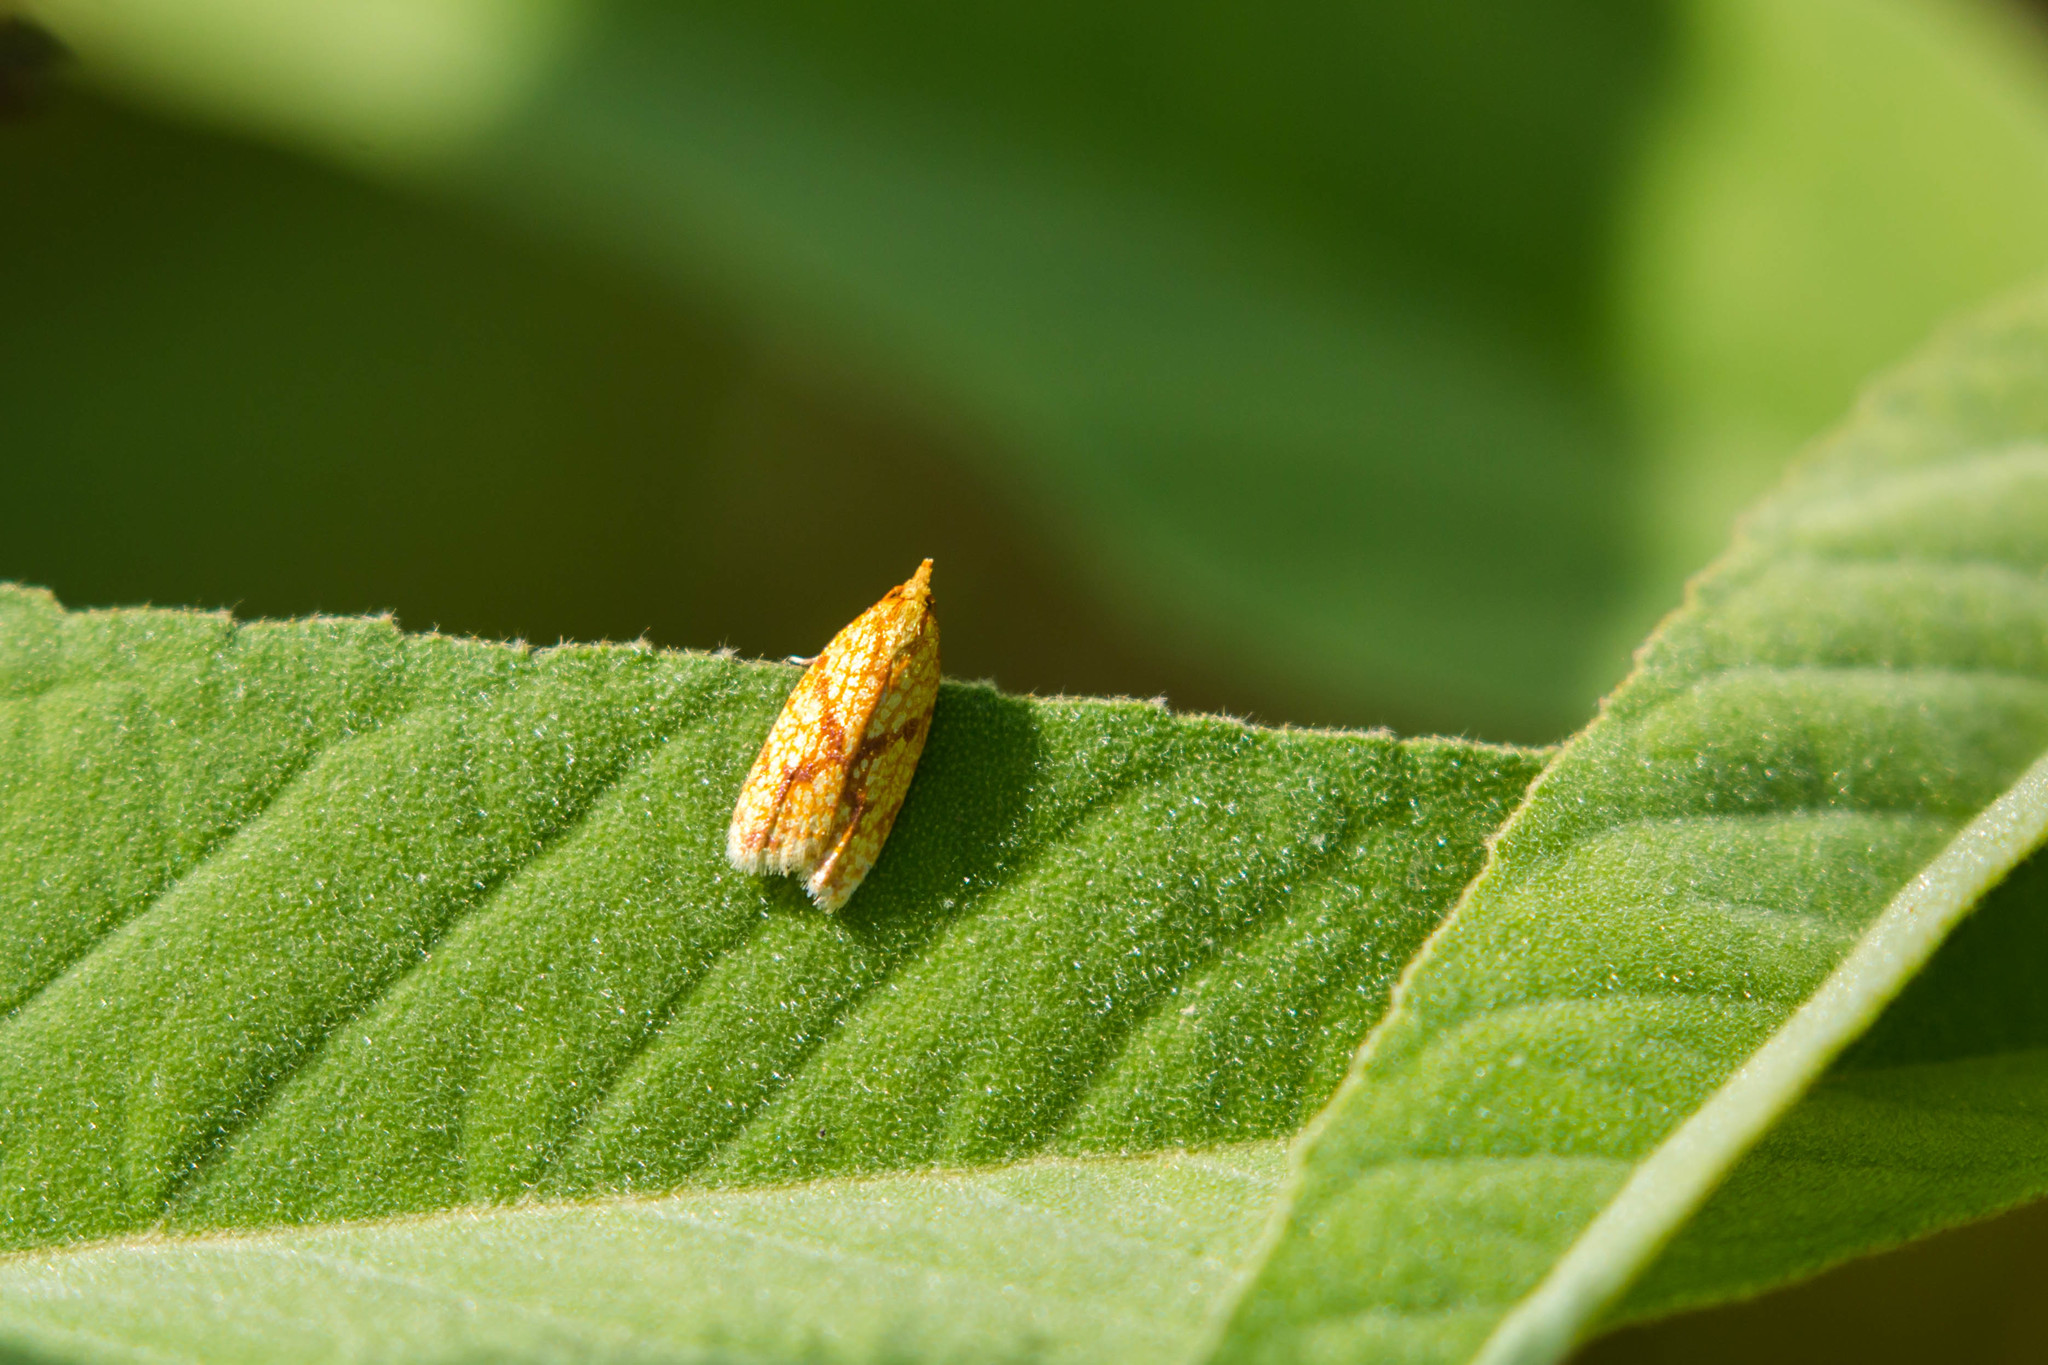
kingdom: Animalia
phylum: Arthropoda
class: Insecta
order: Lepidoptera
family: Tortricidae
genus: Sparganothis
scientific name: Sparganothis sulfureana
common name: Sparganothis fruitworm moth
